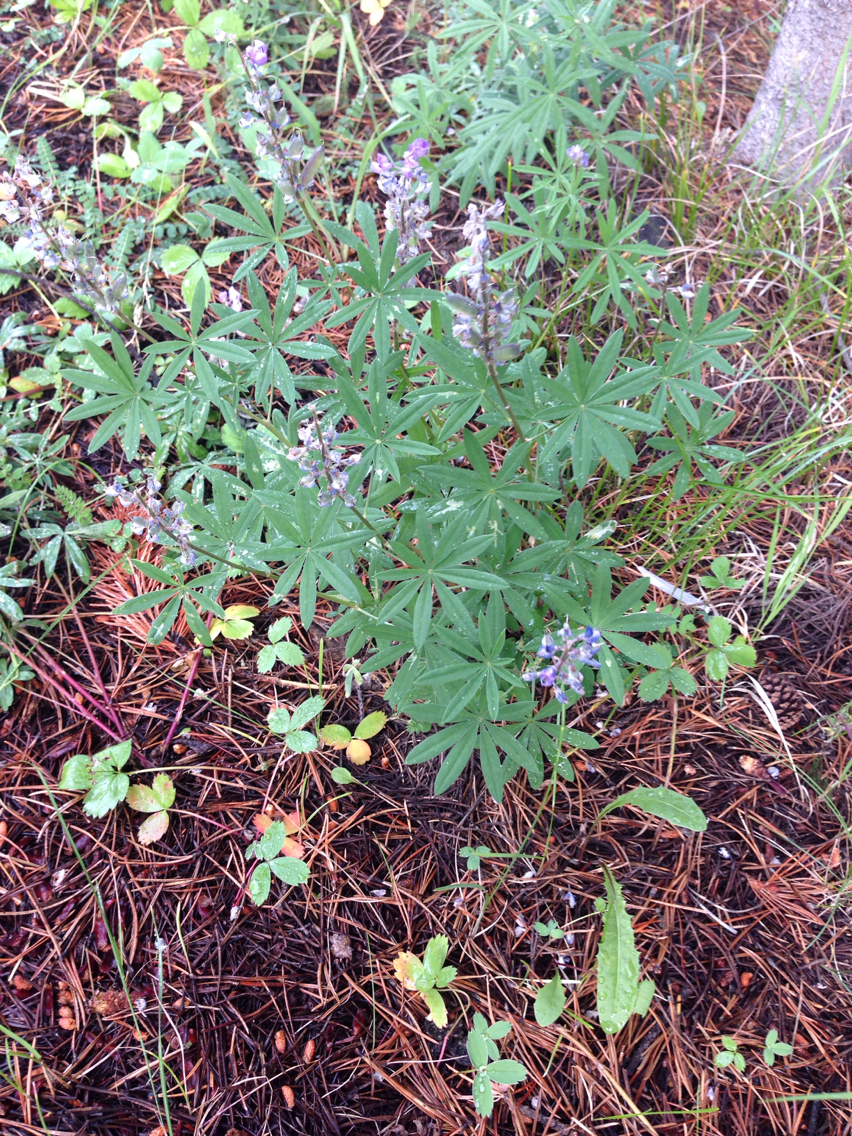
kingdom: Plantae
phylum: Tracheophyta
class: Magnoliopsida
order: Fabales
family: Fabaceae
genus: Lupinus
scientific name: Lupinus argenteus
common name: Silvery lupine
